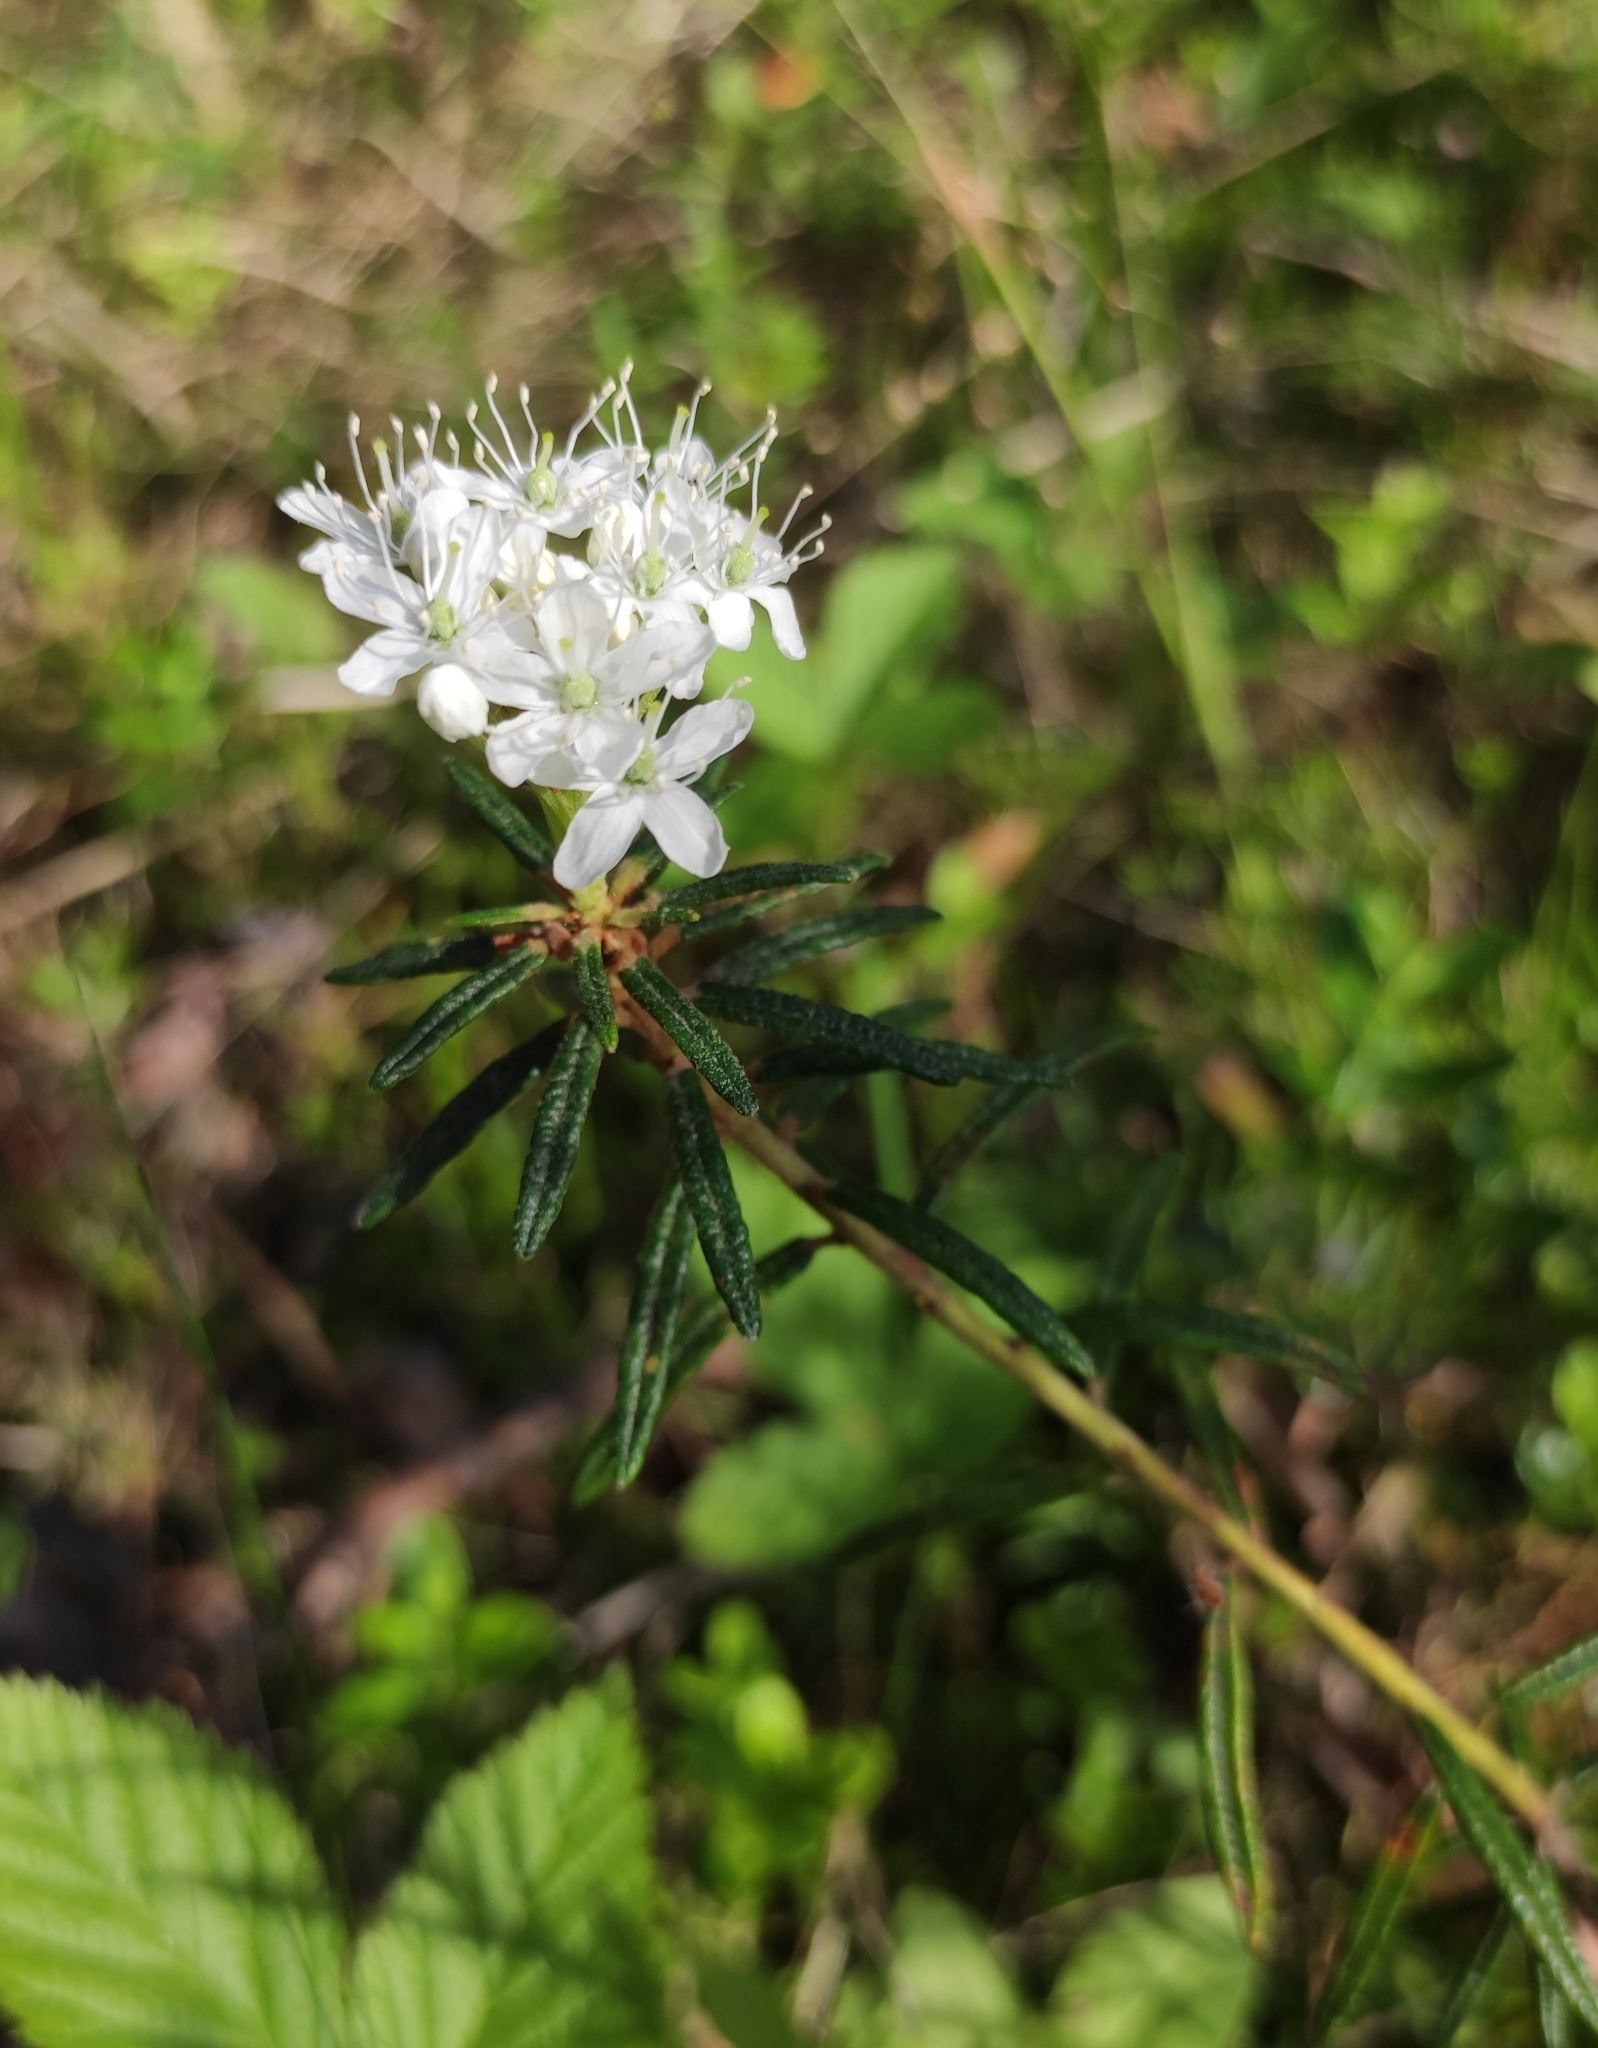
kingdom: Plantae
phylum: Tracheophyta
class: Magnoliopsida
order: Ericales
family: Ericaceae
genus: Rhododendron
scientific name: Rhododendron tomentosum
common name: Marsh labrador tea
